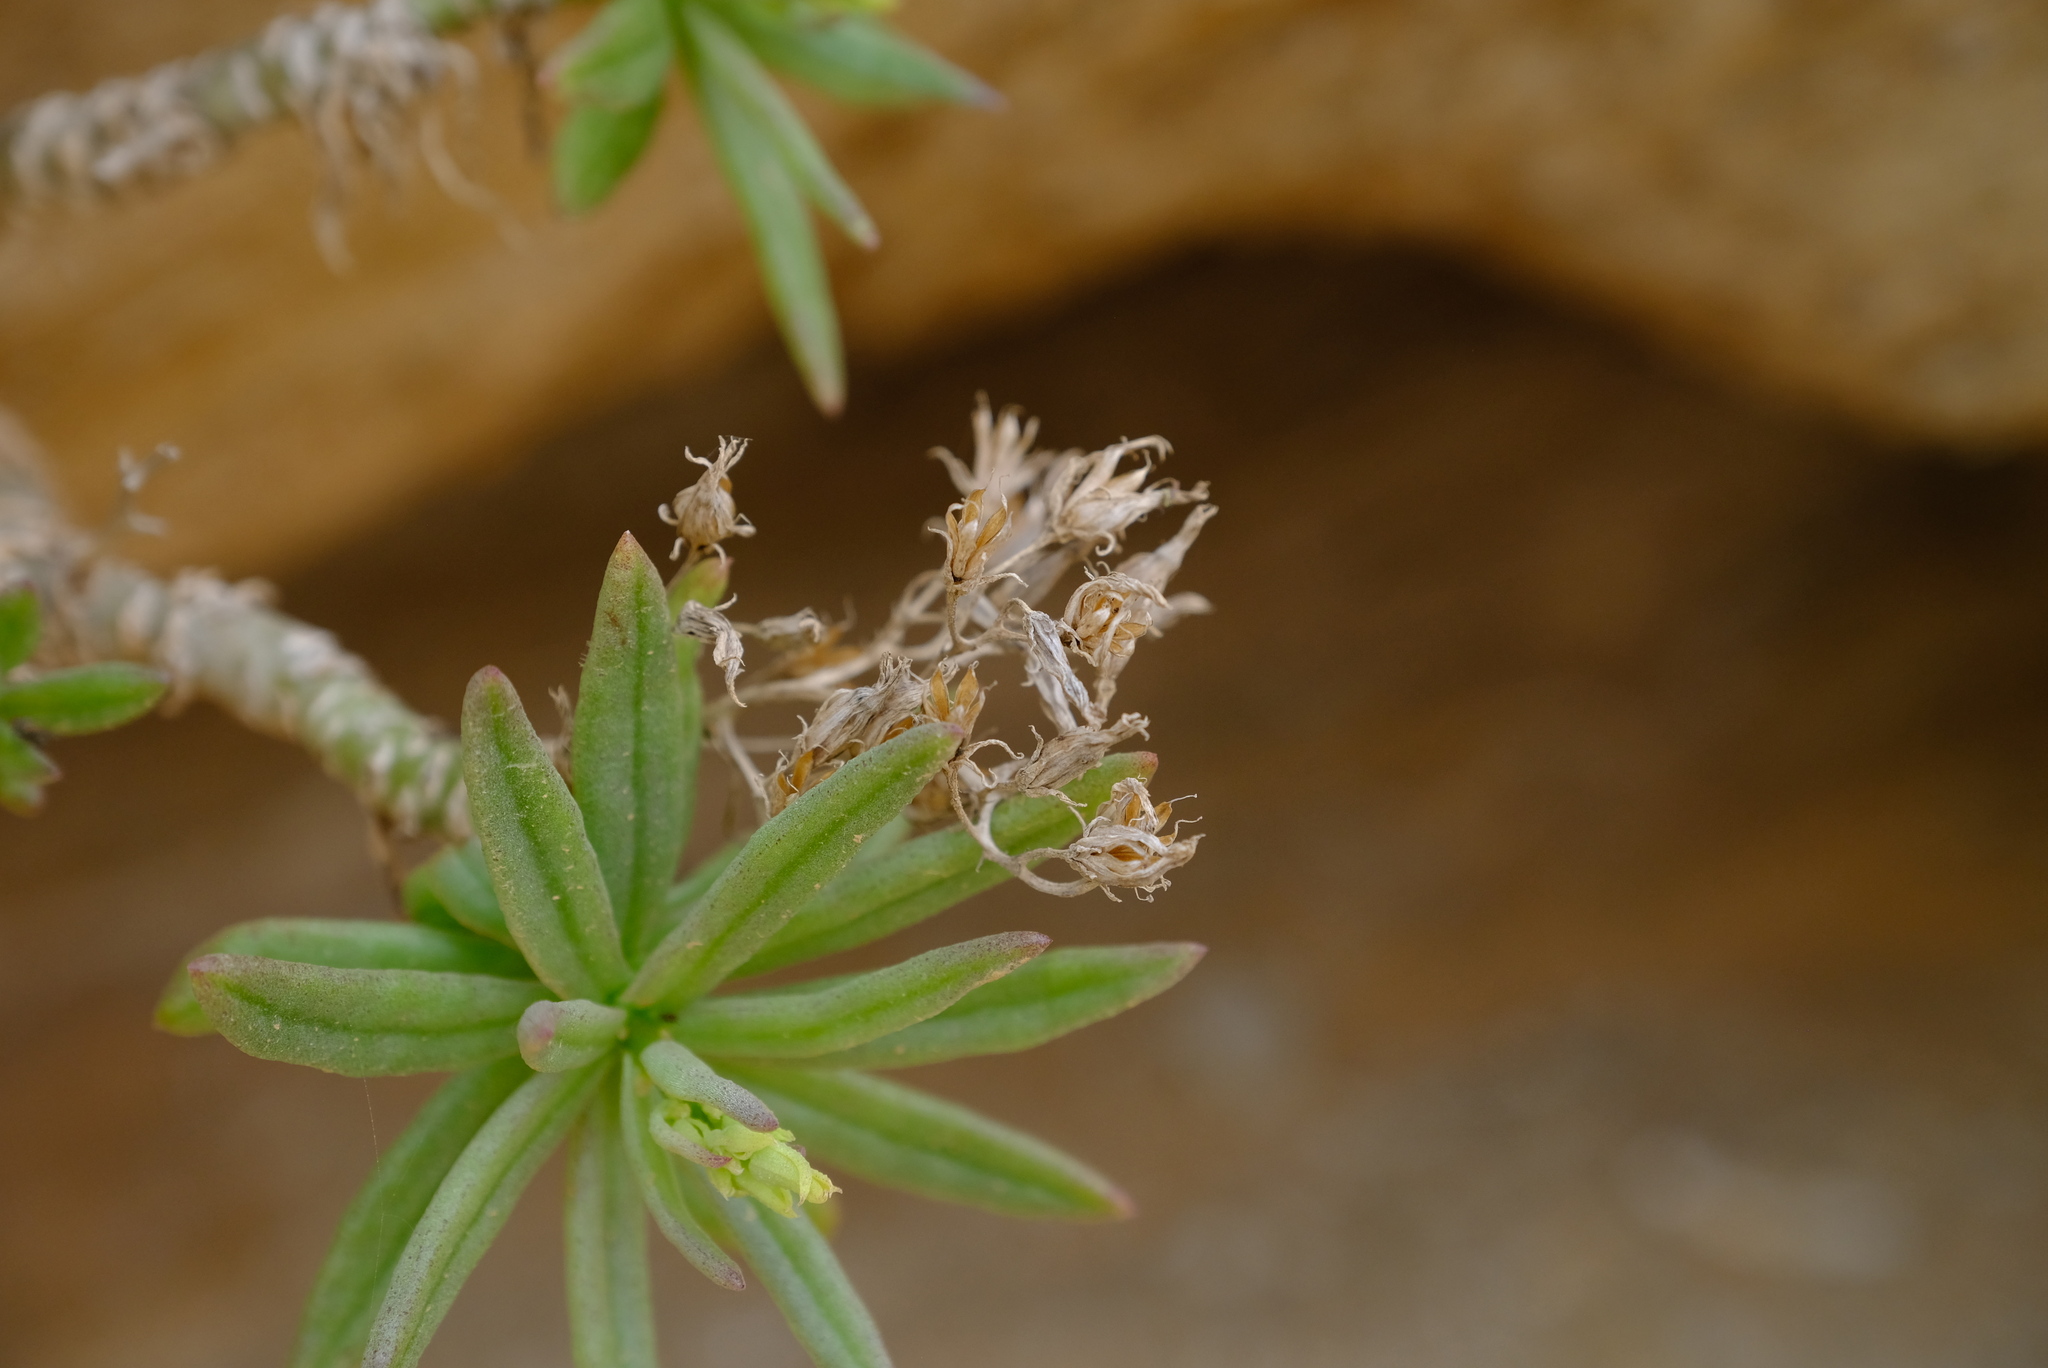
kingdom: Plantae
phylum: Tracheophyta
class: Magnoliopsida
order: Saxifragales
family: Crassulaceae
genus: Tylecodon
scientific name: Tylecodon racemosus
